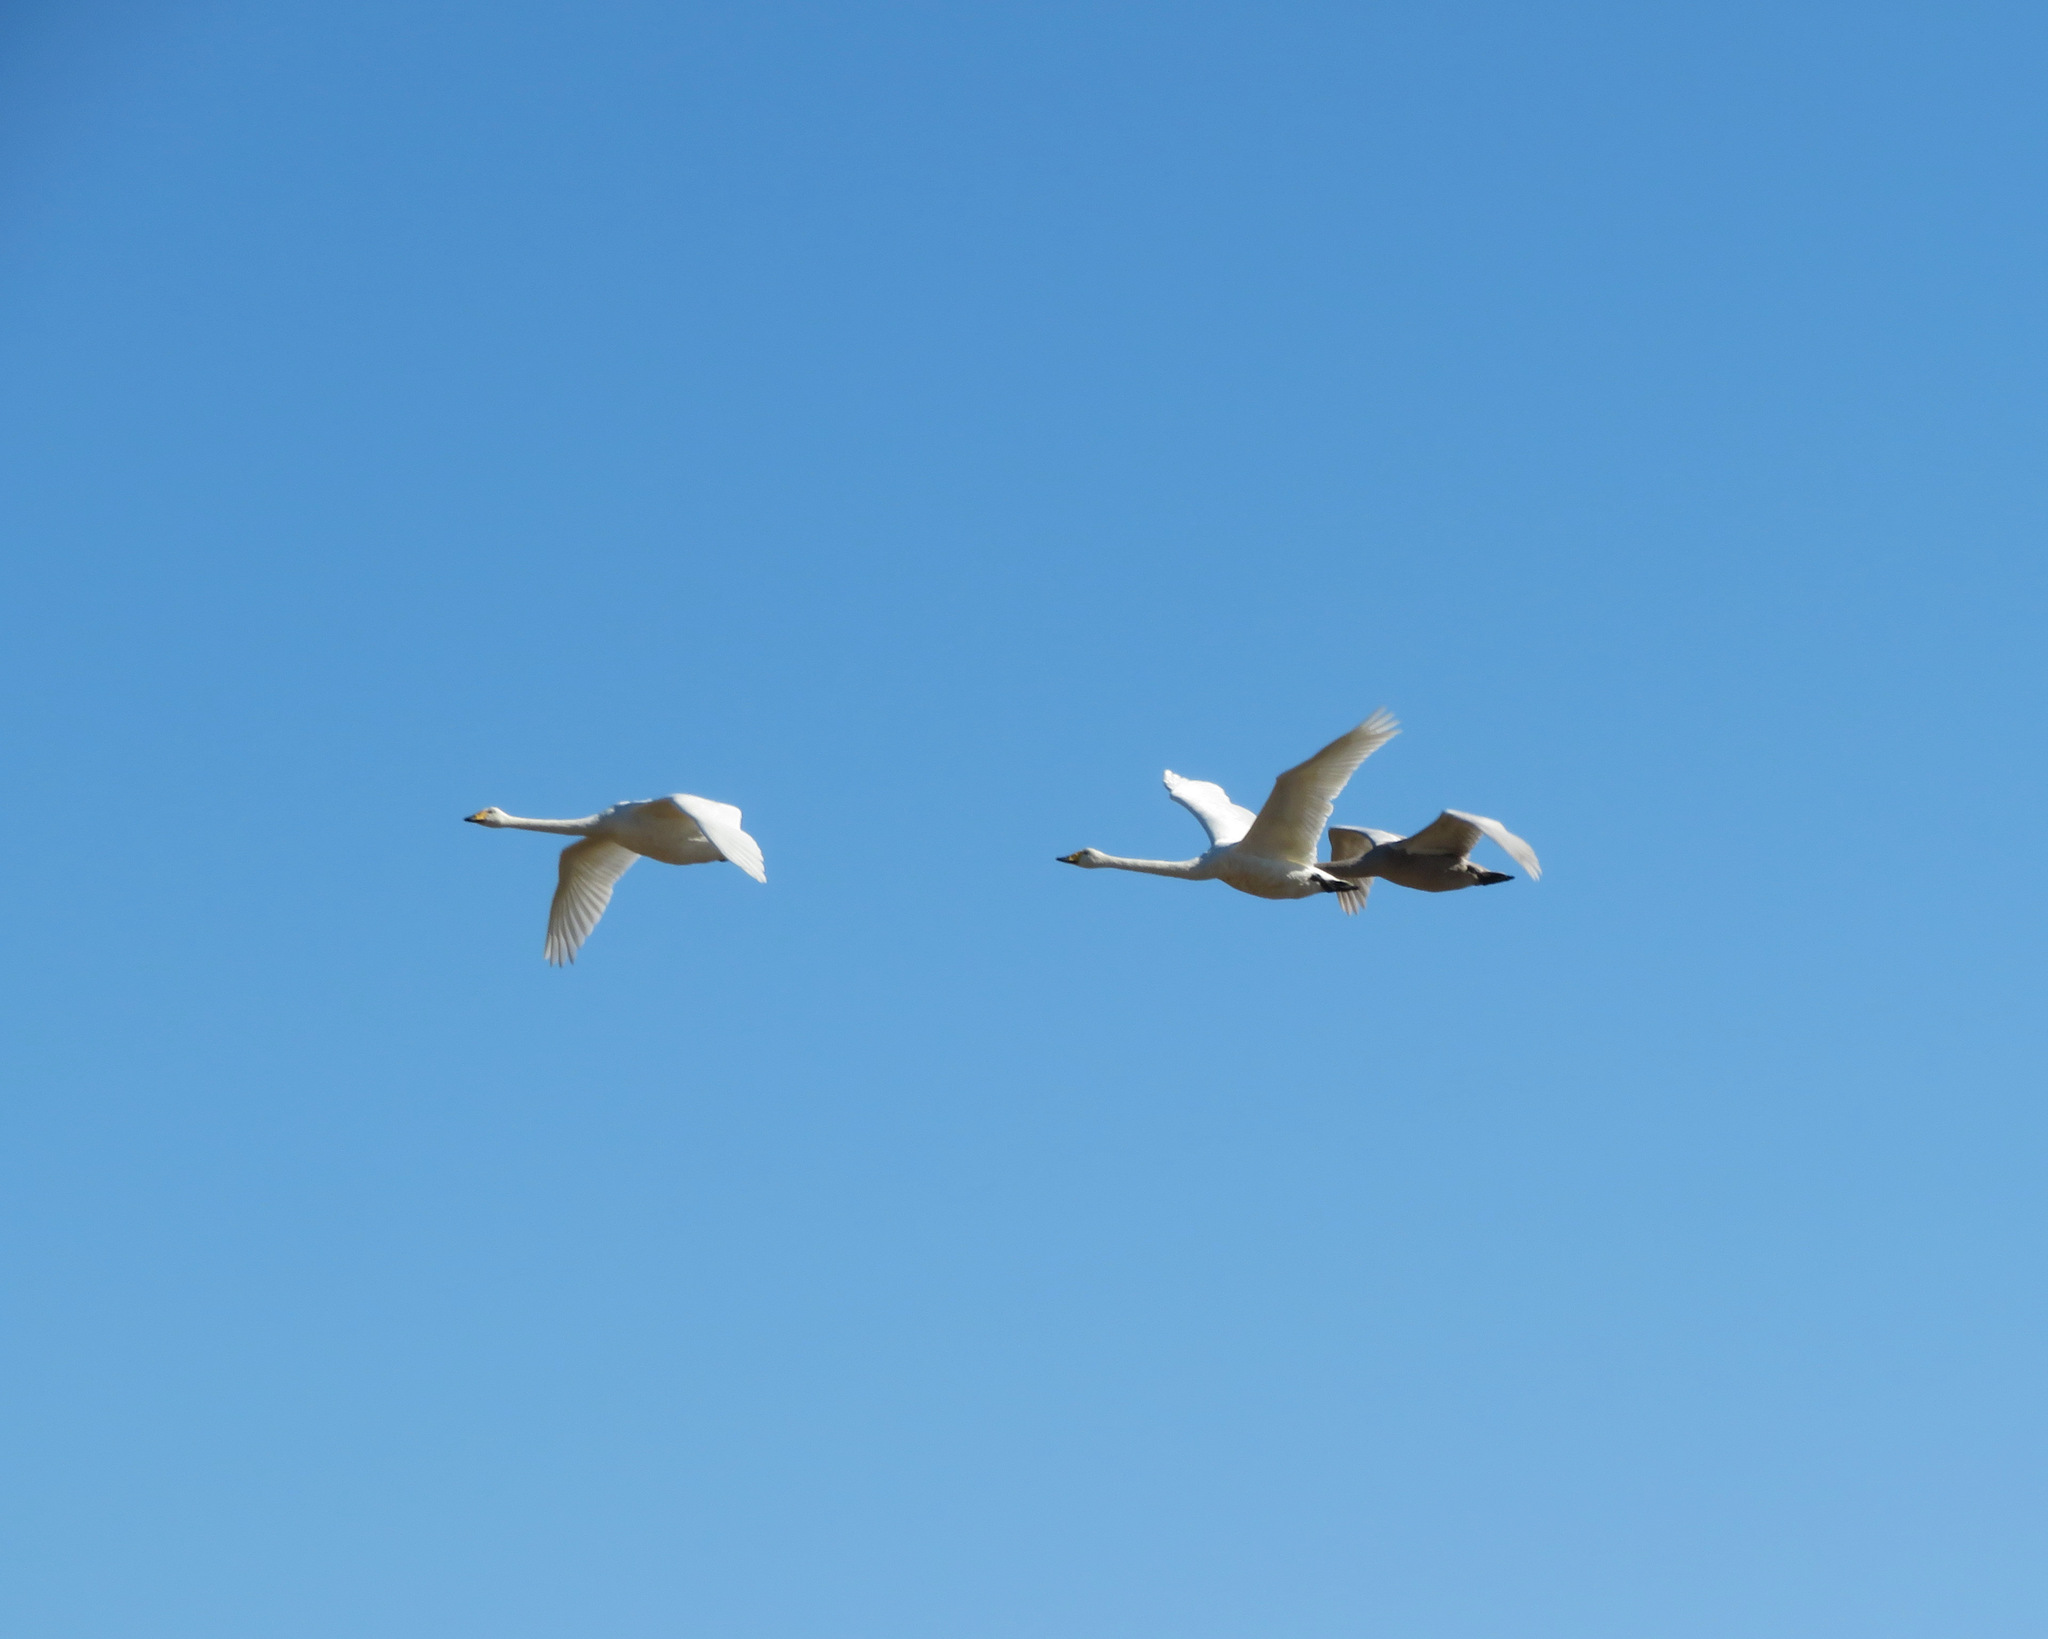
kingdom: Animalia
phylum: Chordata
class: Aves
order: Anseriformes
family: Anatidae
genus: Cygnus
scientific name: Cygnus cygnus
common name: Whooper swan
